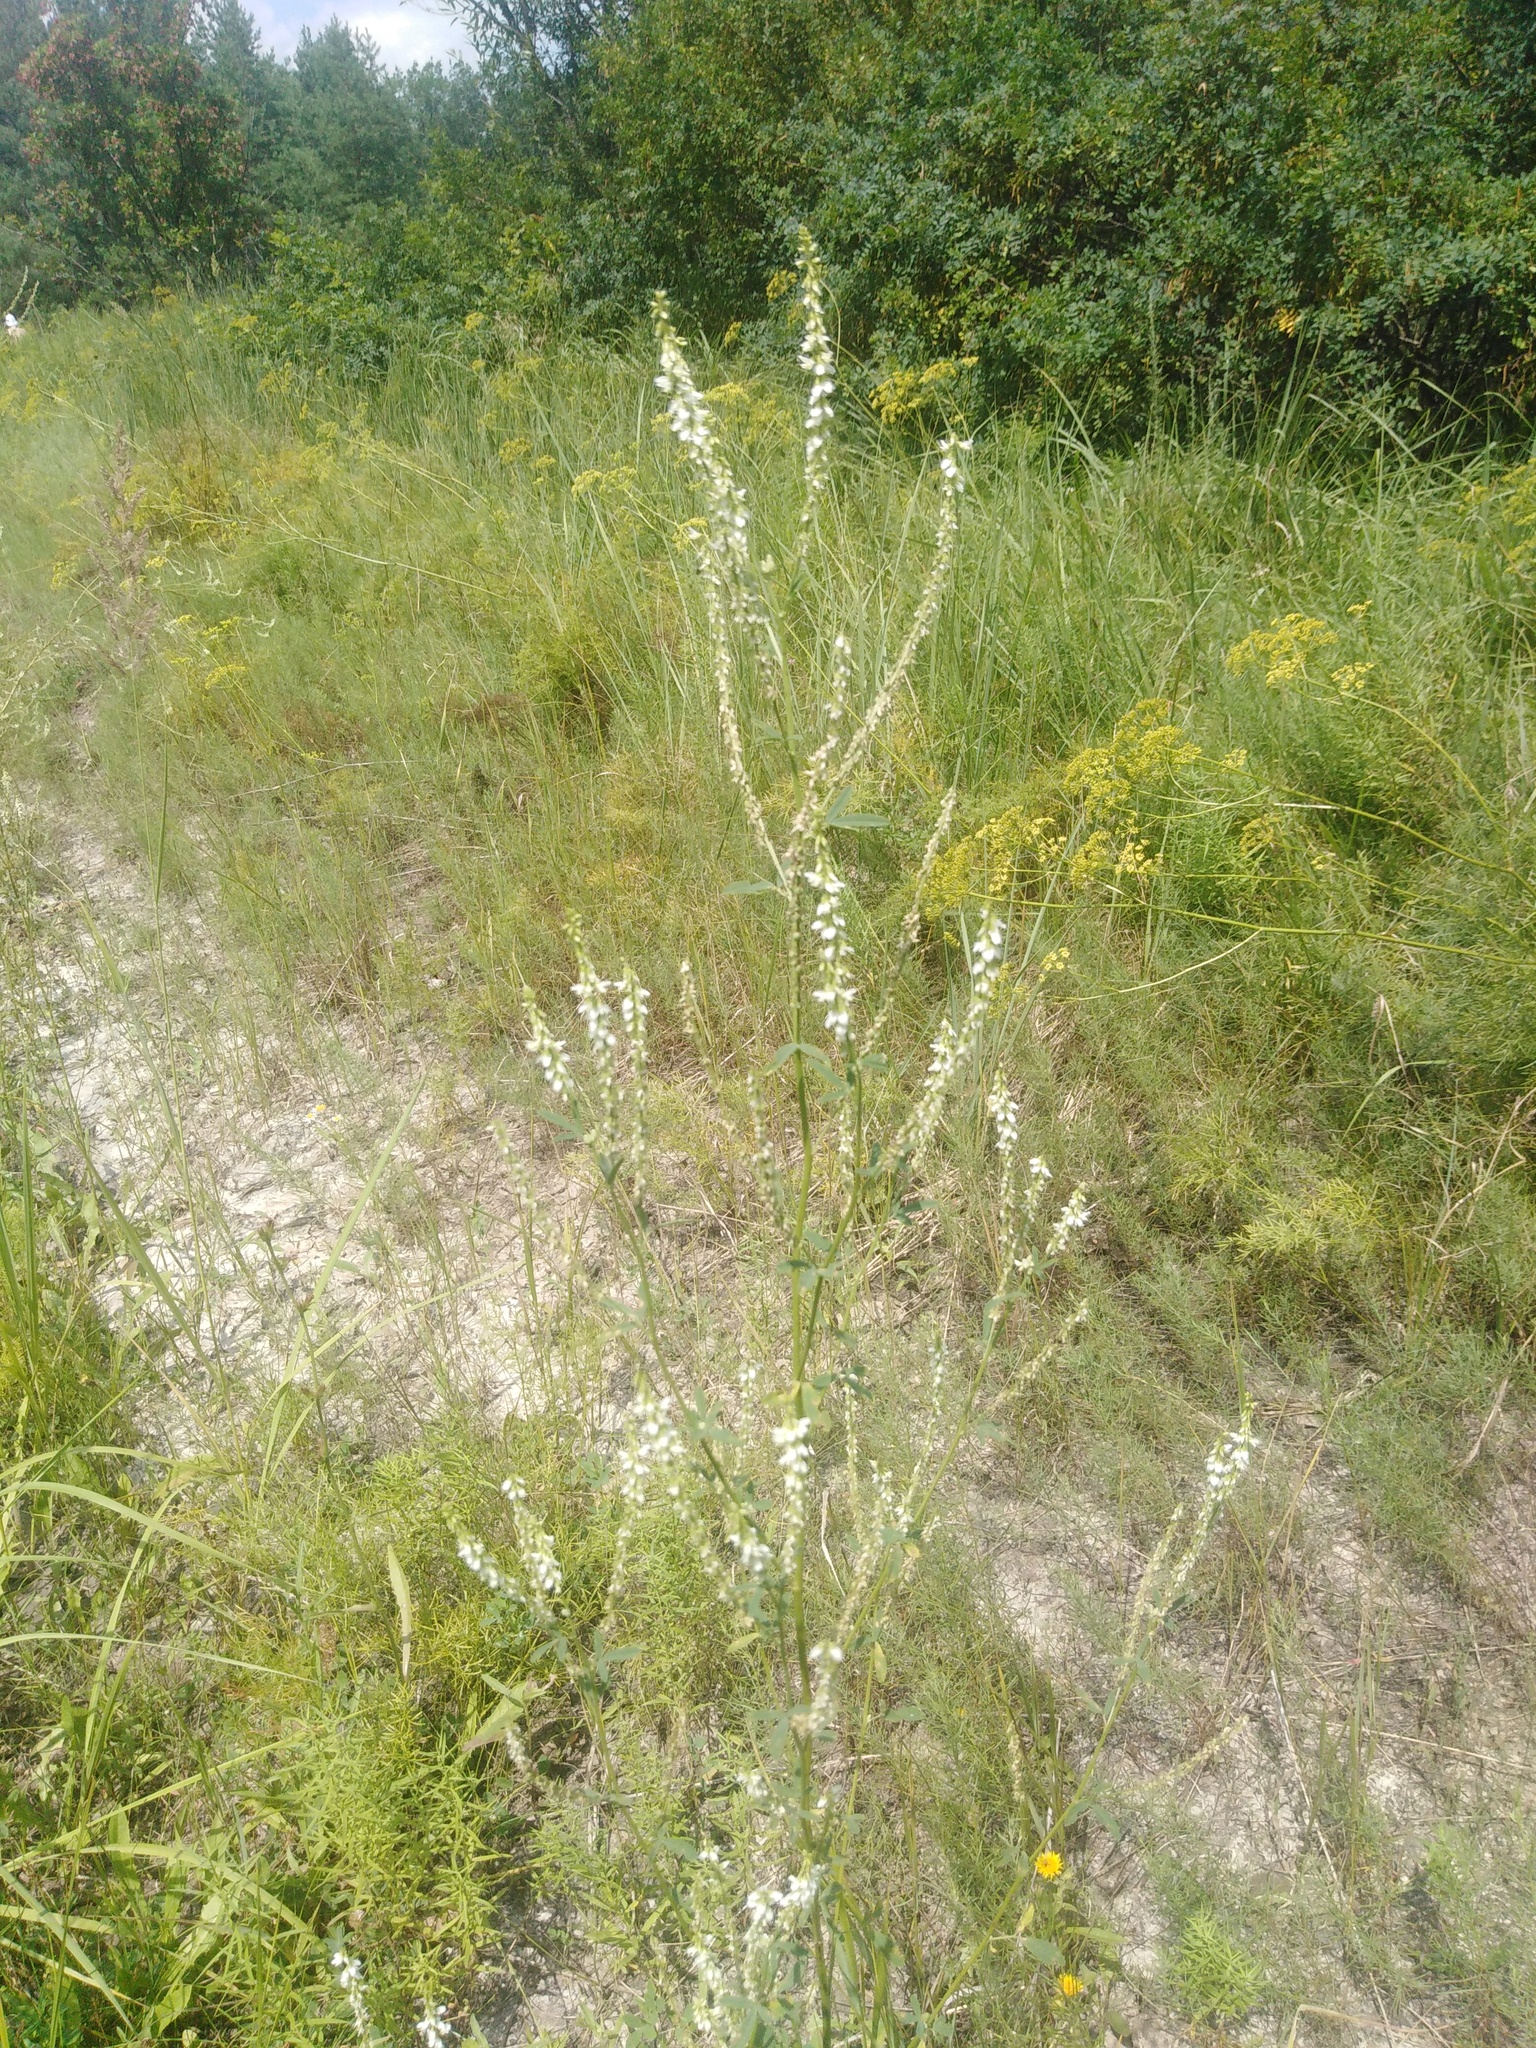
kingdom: Plantae
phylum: Tracheophyta
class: Magnoliopsida
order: Fabales
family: Fabaceae
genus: Melilotus
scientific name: Melilotus albus
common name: White melilot
